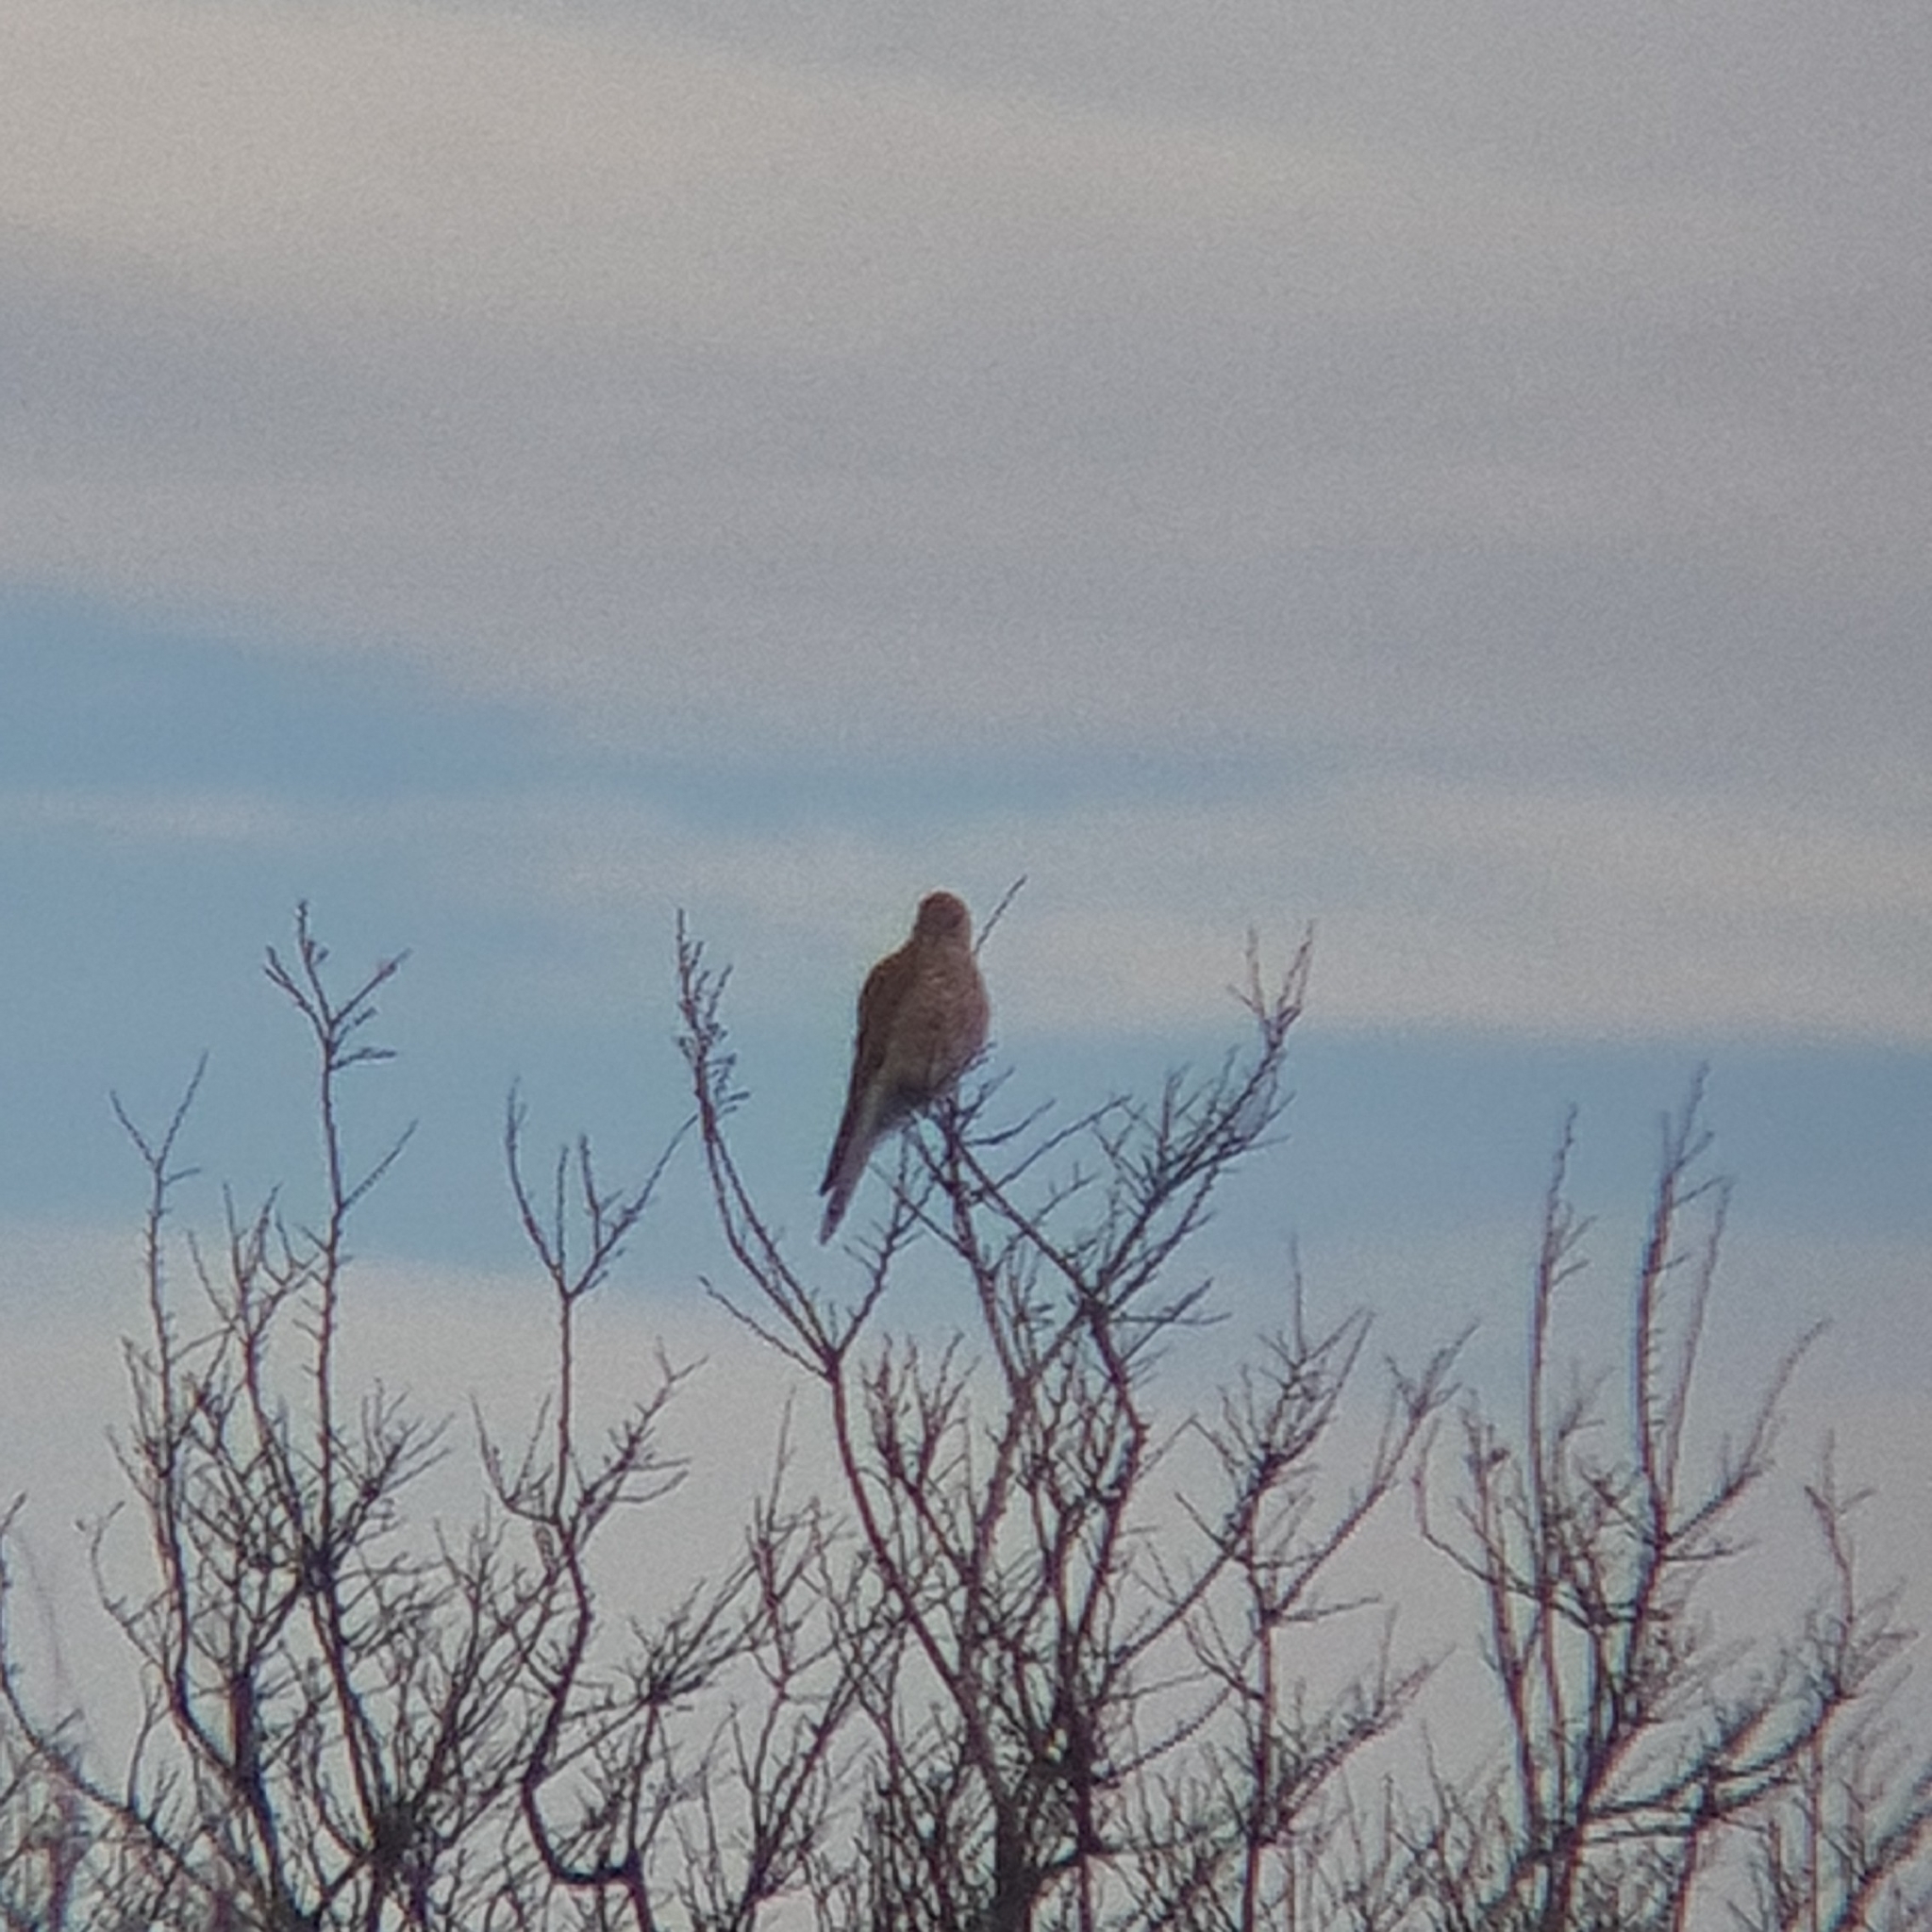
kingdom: Animalia
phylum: Chordata
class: Aves
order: Falconiformes
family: Falconidae
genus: Falco
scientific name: Falco tinnunculus
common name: Common kestrel
